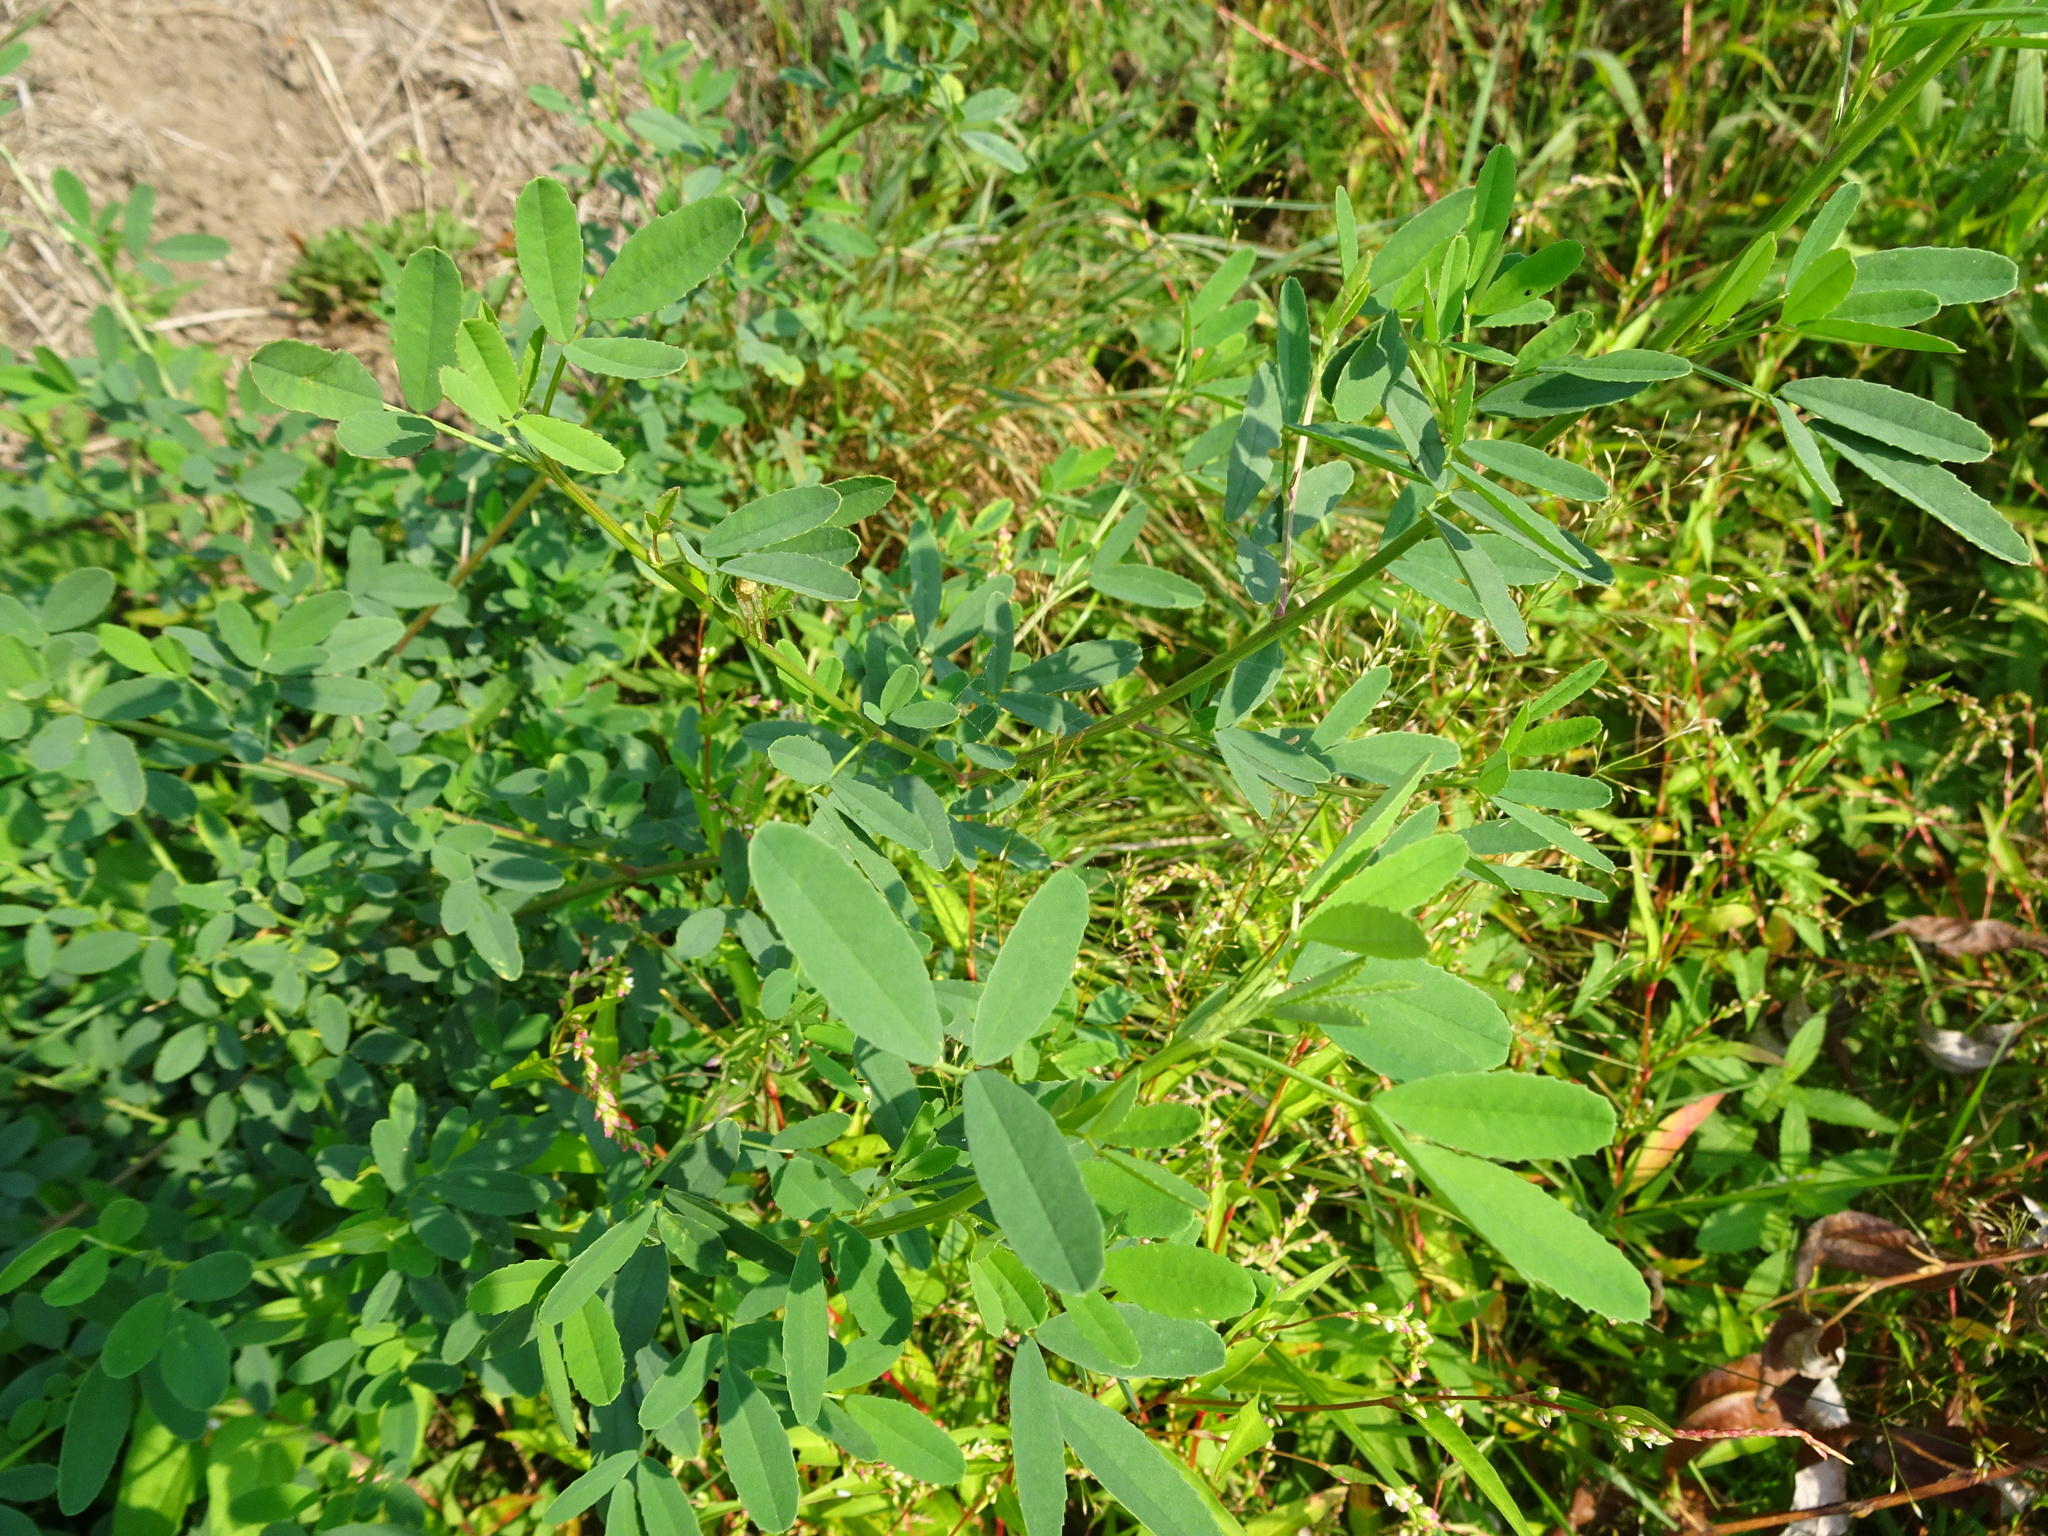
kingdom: Plantae
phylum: Tracheophyta
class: Magnoliopsida
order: Fabales
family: Fabaceae
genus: Medicago
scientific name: Medicago varia
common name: Sand lucerne
